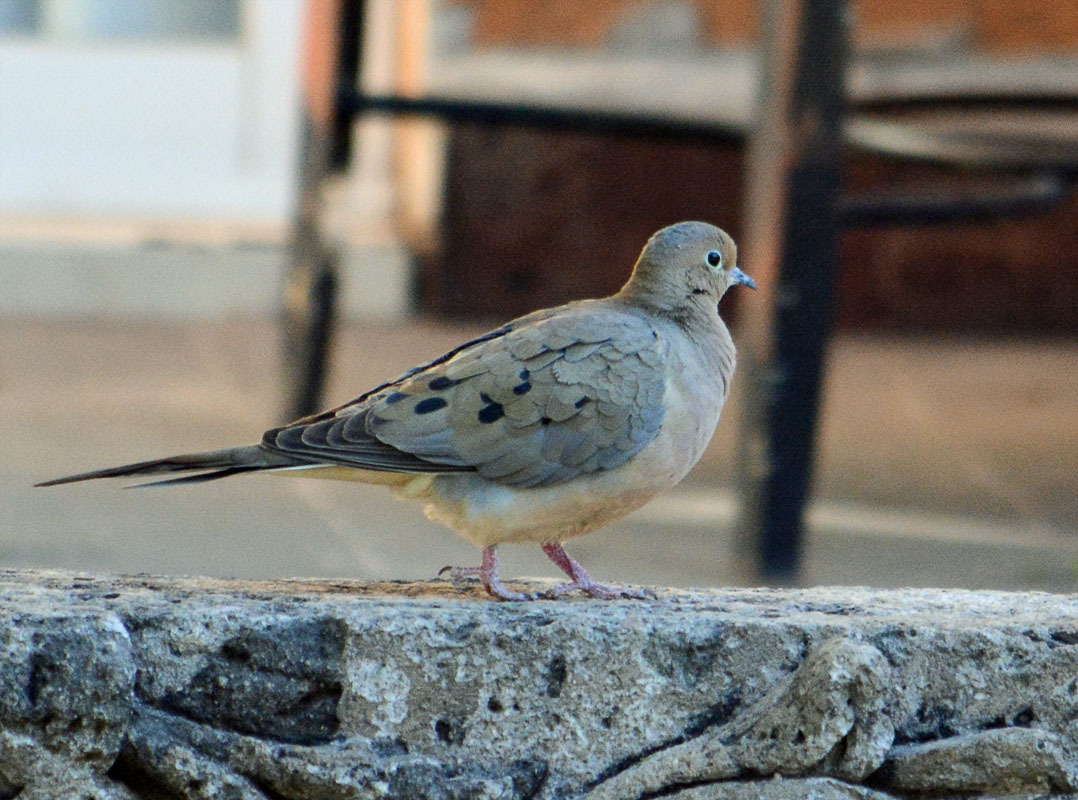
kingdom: Animalia
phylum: Chordata
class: Aves
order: Columbiformes
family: Columbidae
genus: Zenaida
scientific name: Zenaida macroura
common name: Mourning dove
